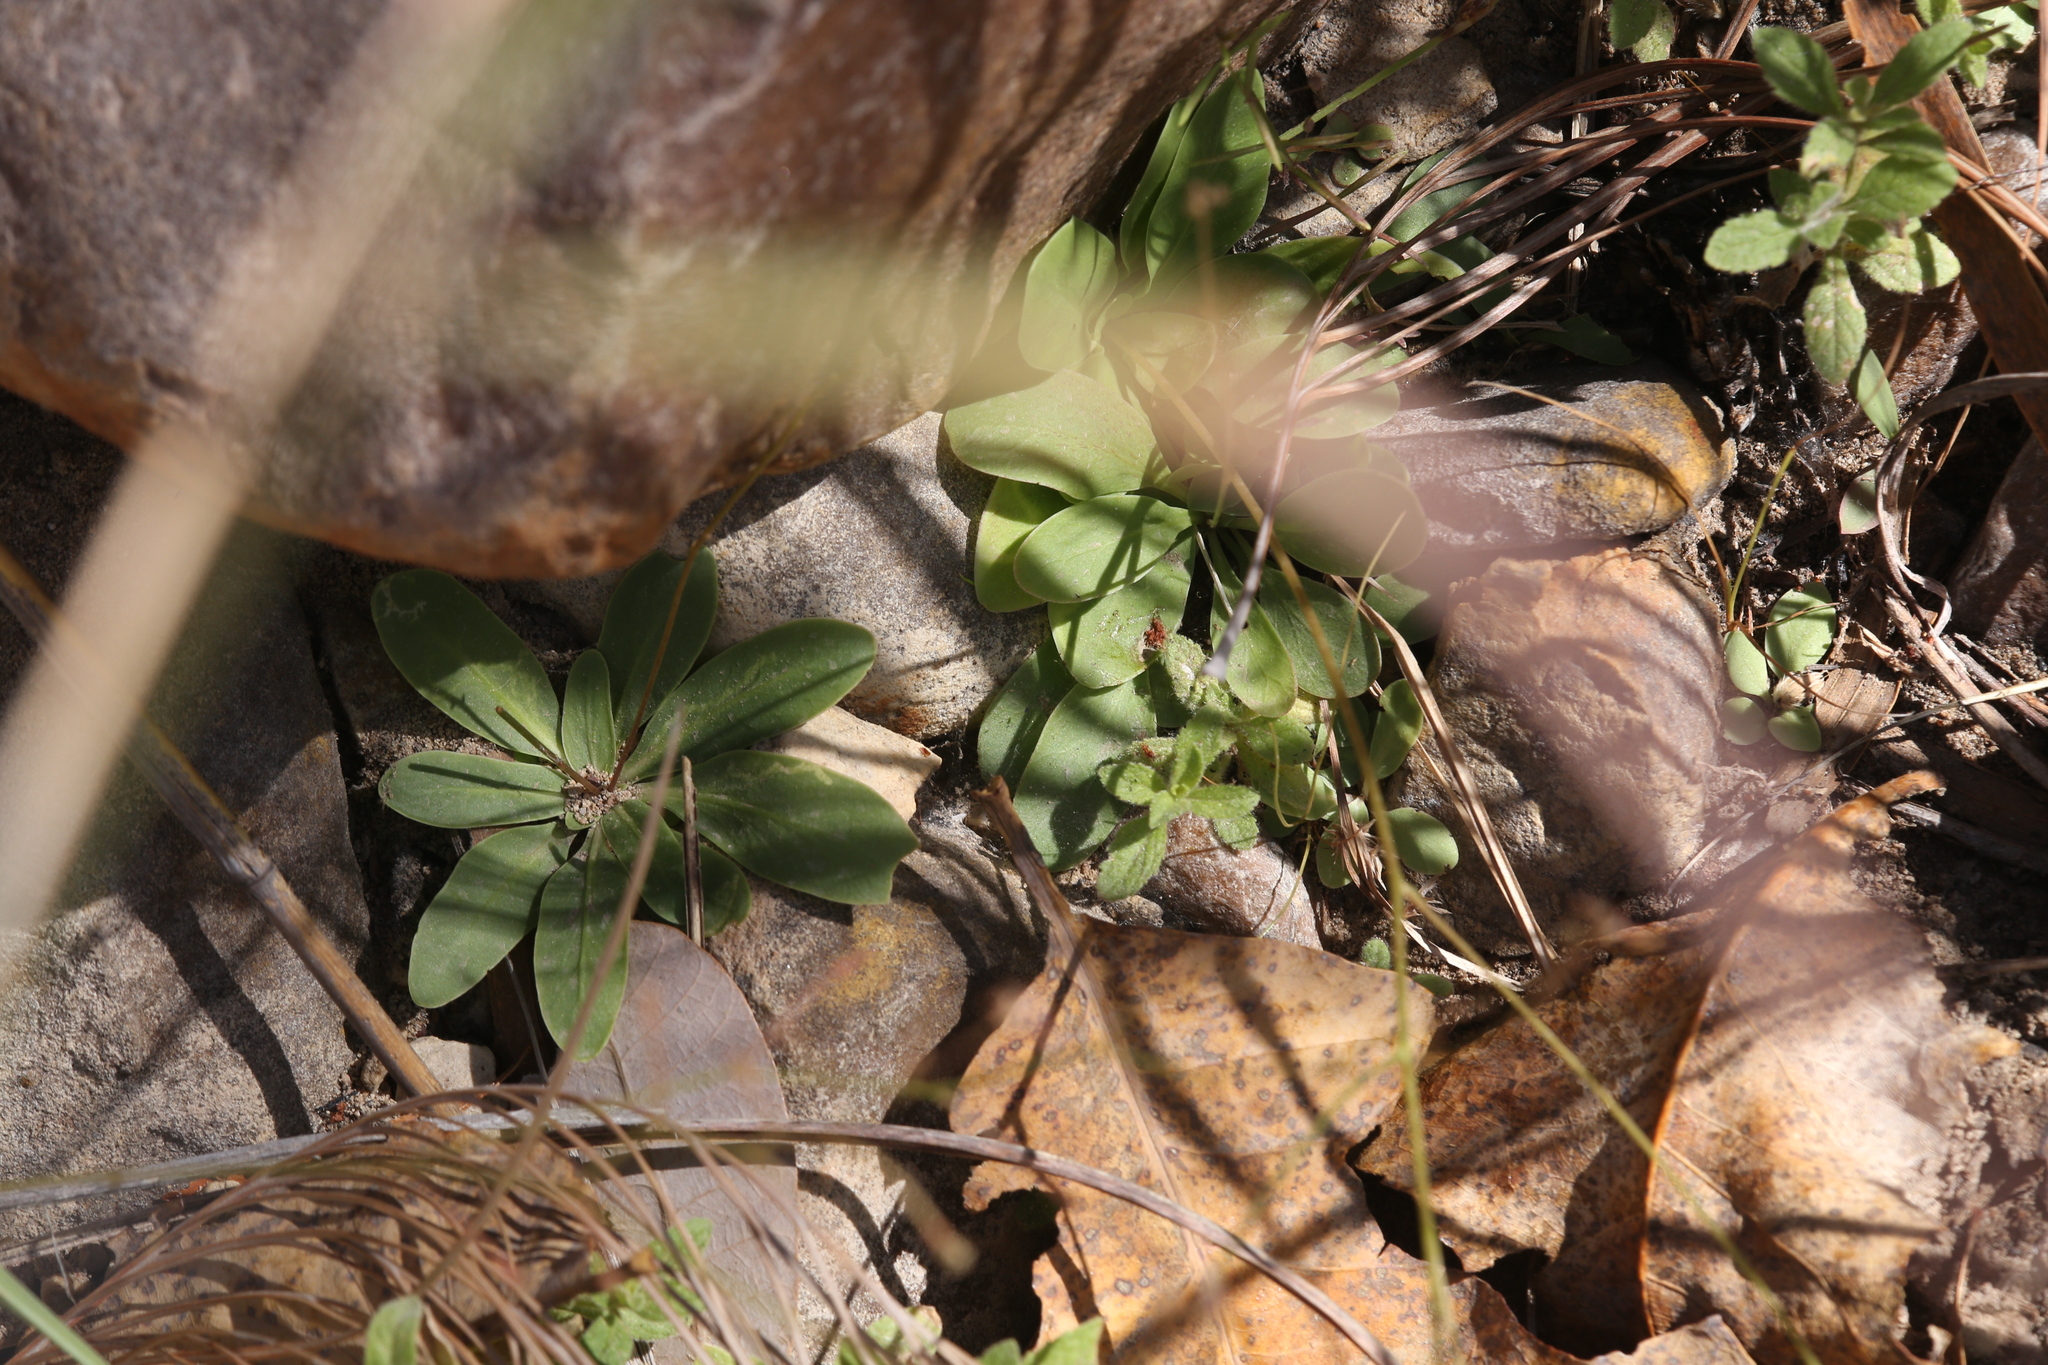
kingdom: Plantae
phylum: Tracheophyta
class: Magnoliopsida
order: Asterales
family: Stylidiaceae
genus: Stylidium
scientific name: Stylidium pachyrhizum
